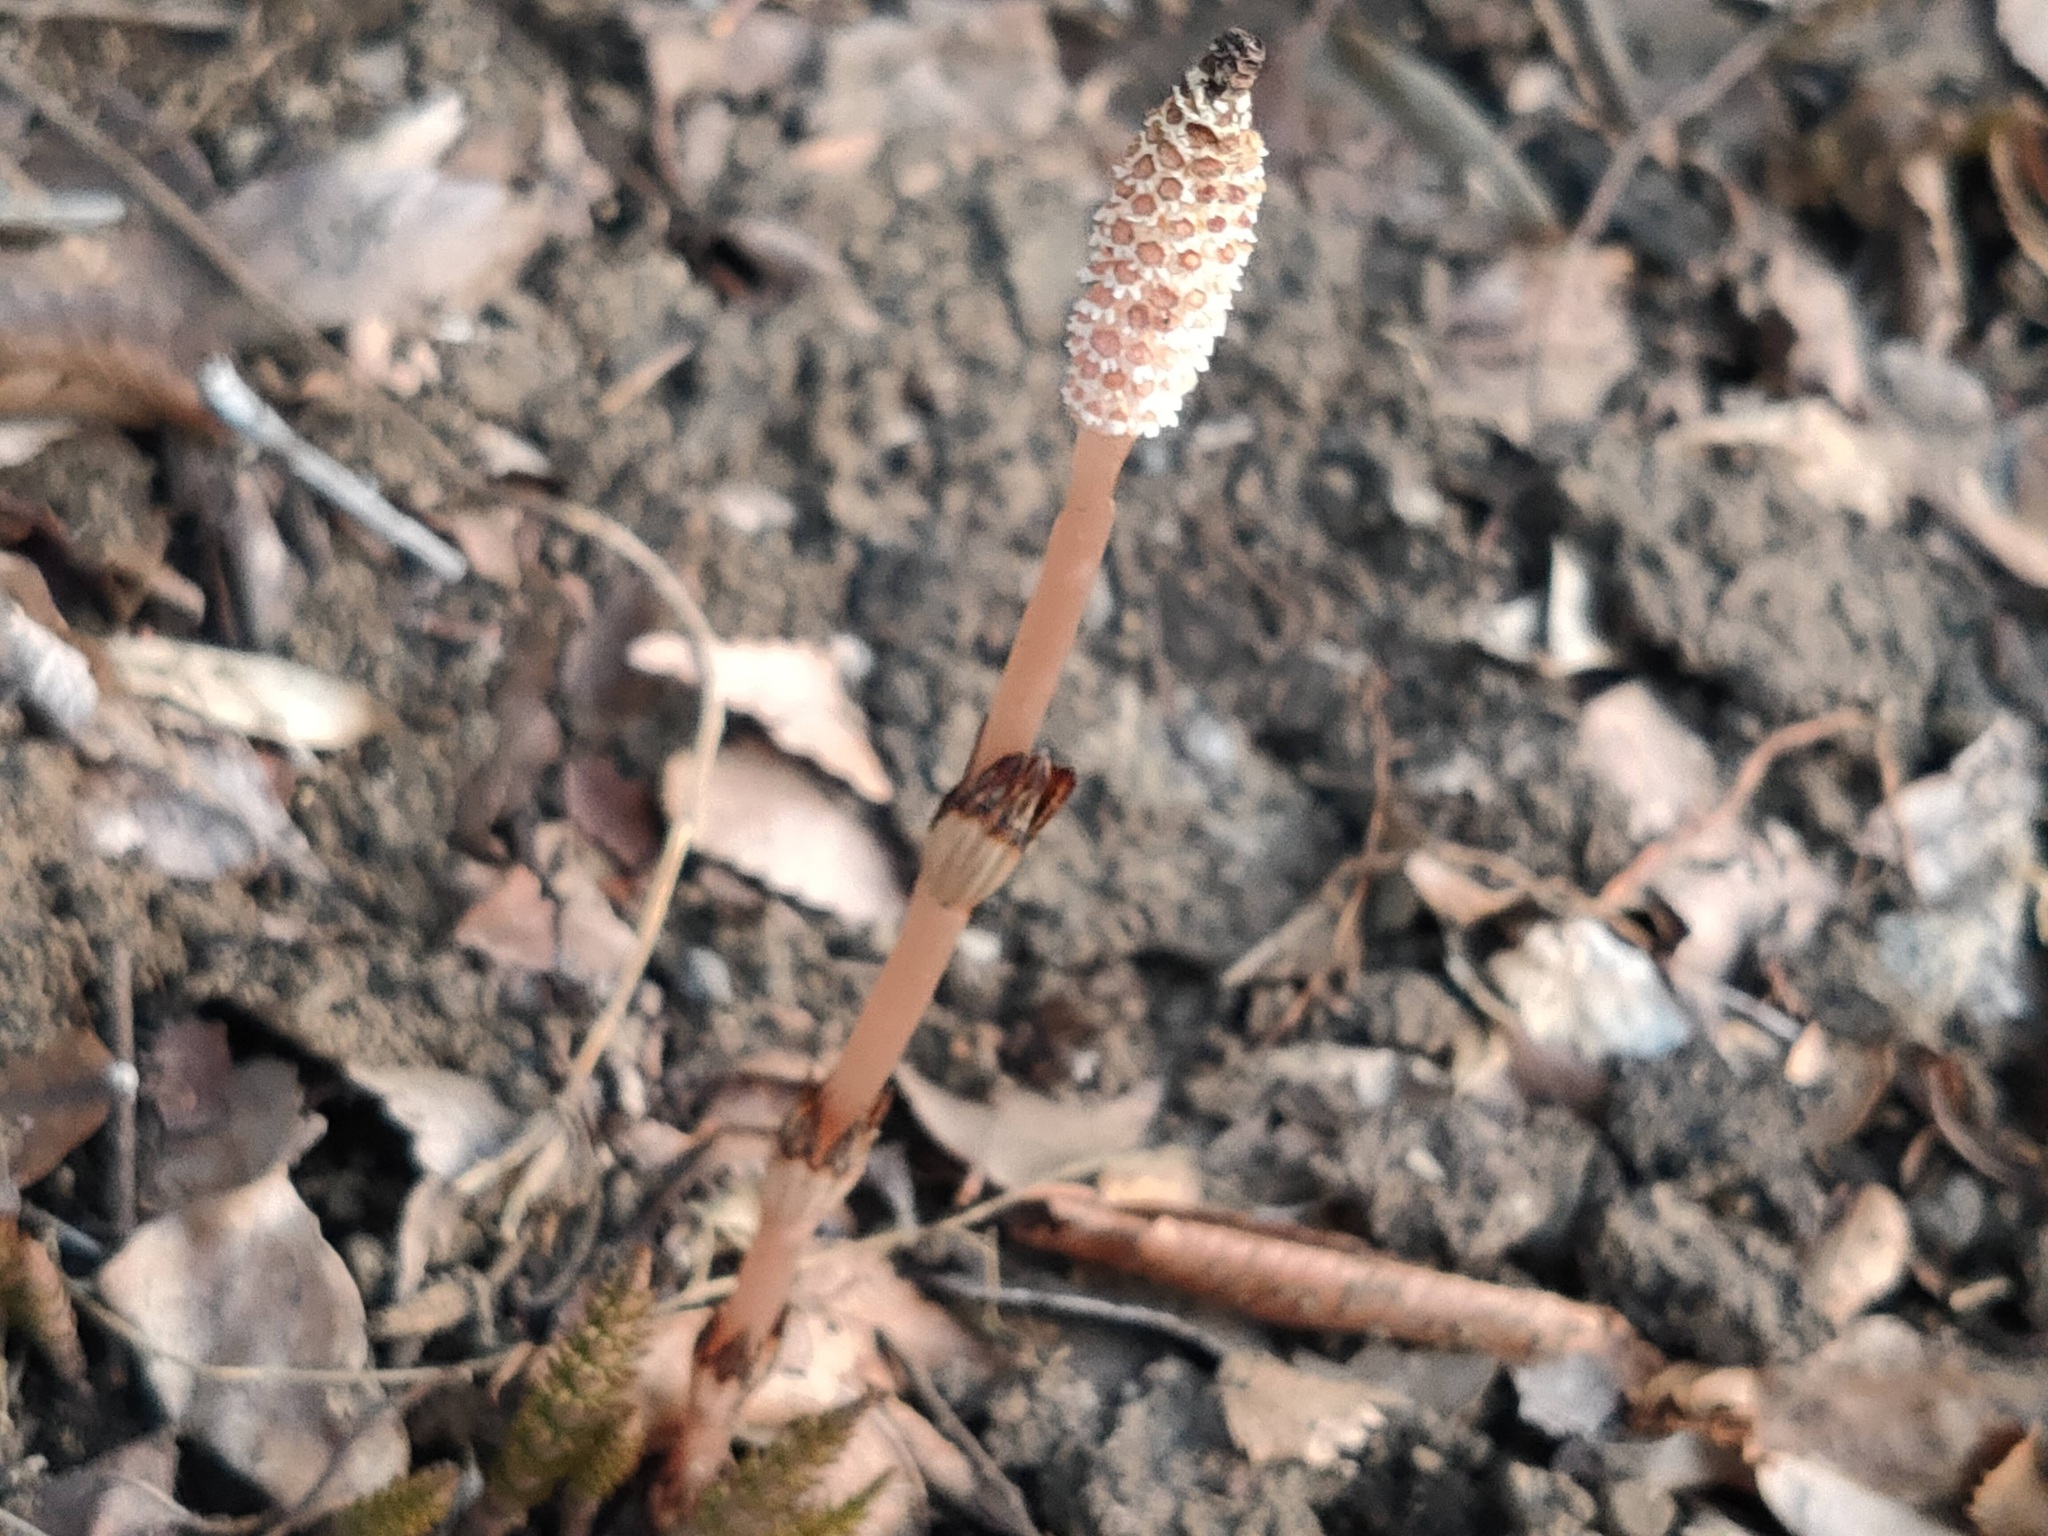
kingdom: Plantae
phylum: Tracheophyta
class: Polypodiopsida
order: Equisetales
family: Equisetaceae
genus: Equisetum
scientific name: Equisetum arvense
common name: Field horsetail
